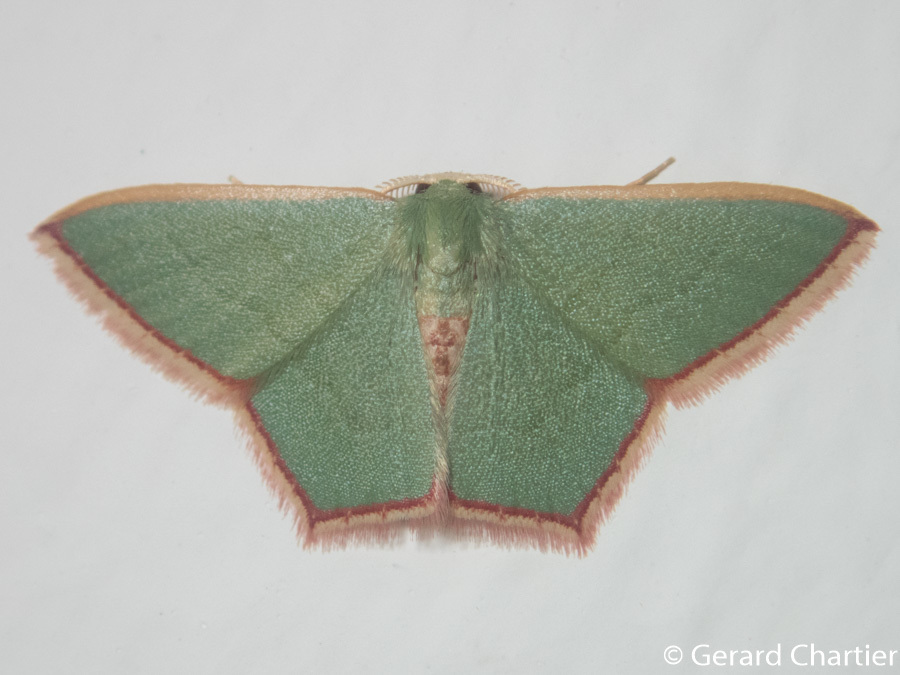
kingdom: Animalia
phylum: Arthropoda
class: Insecta
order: Lepidoptera
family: Geometridae
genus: Pamphlebia
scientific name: Pamphlebia rubrolimbraria
